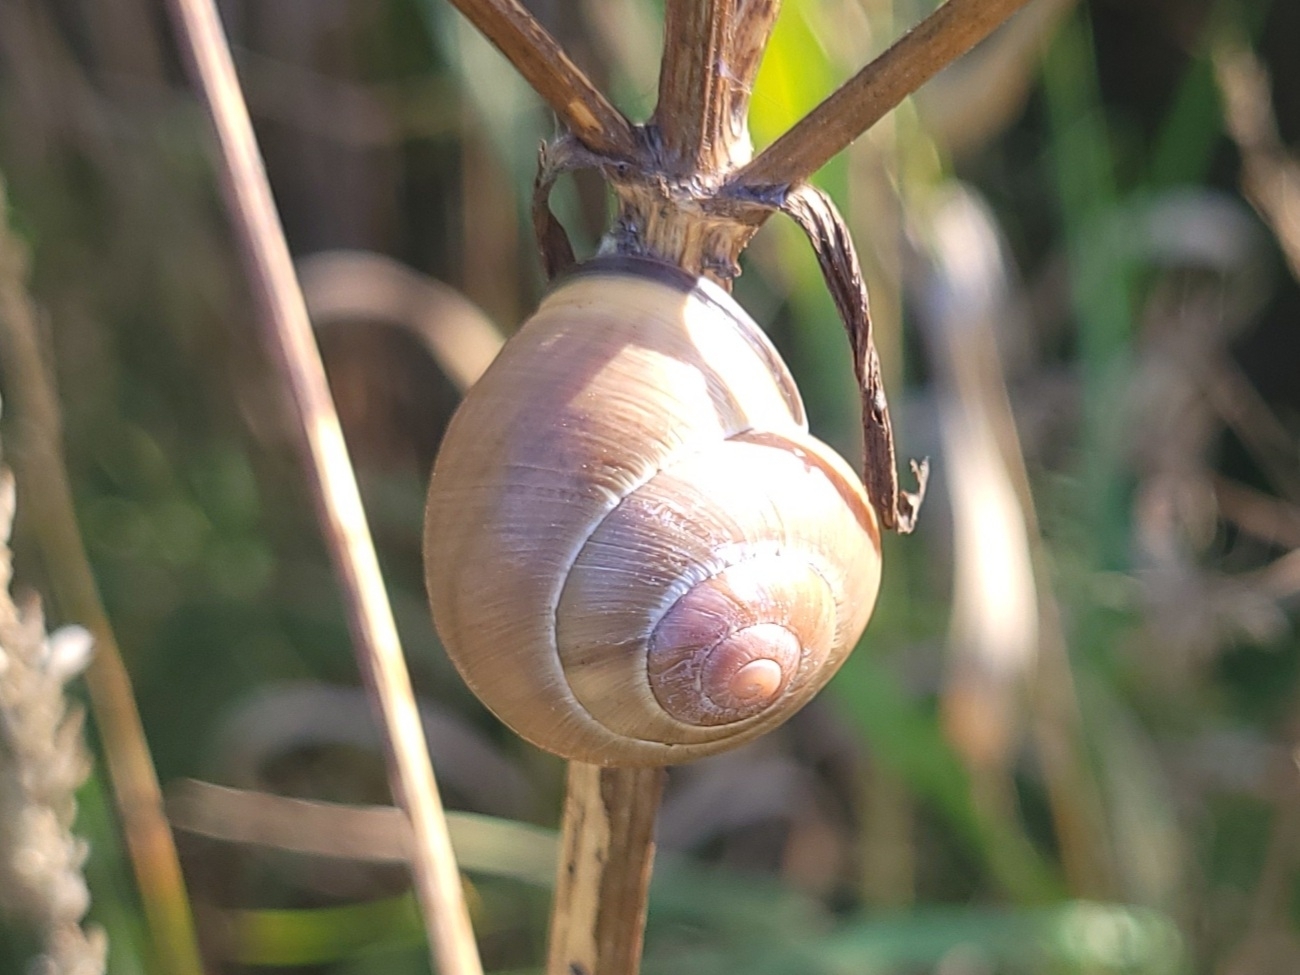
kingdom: Animalia
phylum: Mollusca
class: Gastropoda
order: Stylommatophora
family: Helicidae
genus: Cepaea
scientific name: Cepaea nemoralis
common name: Grovesnail
